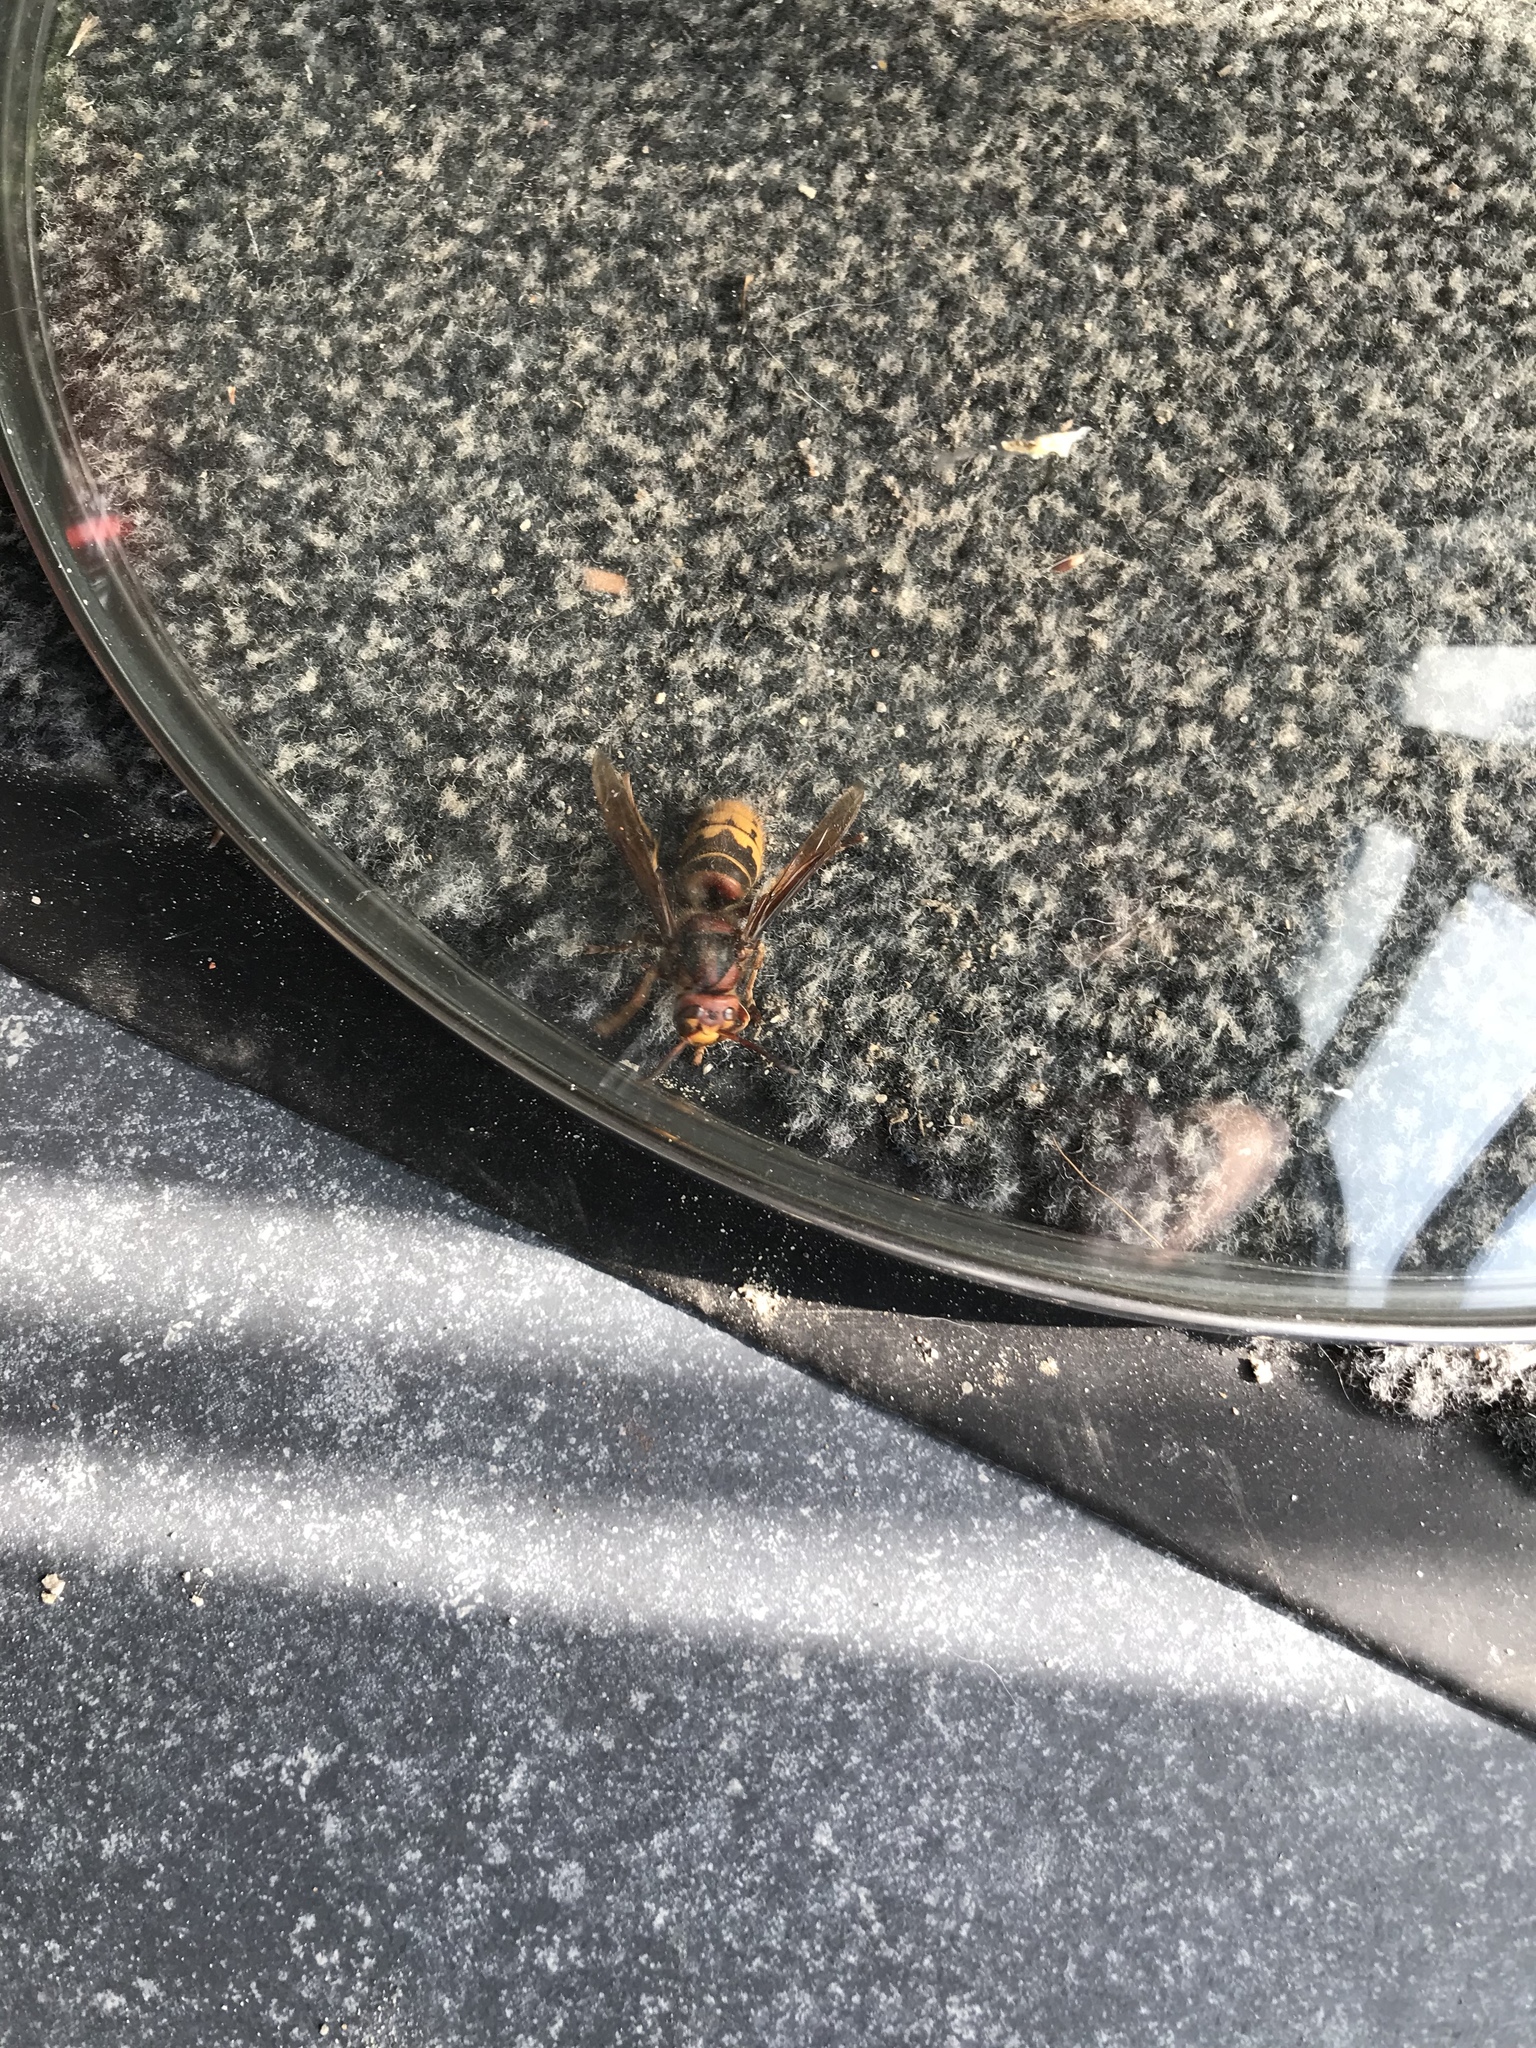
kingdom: Animalia
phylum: Arthropoda
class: Insecta
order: Hymenoptera
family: Vespidae
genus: Vespa
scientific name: Vespa crabro
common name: Hornet
